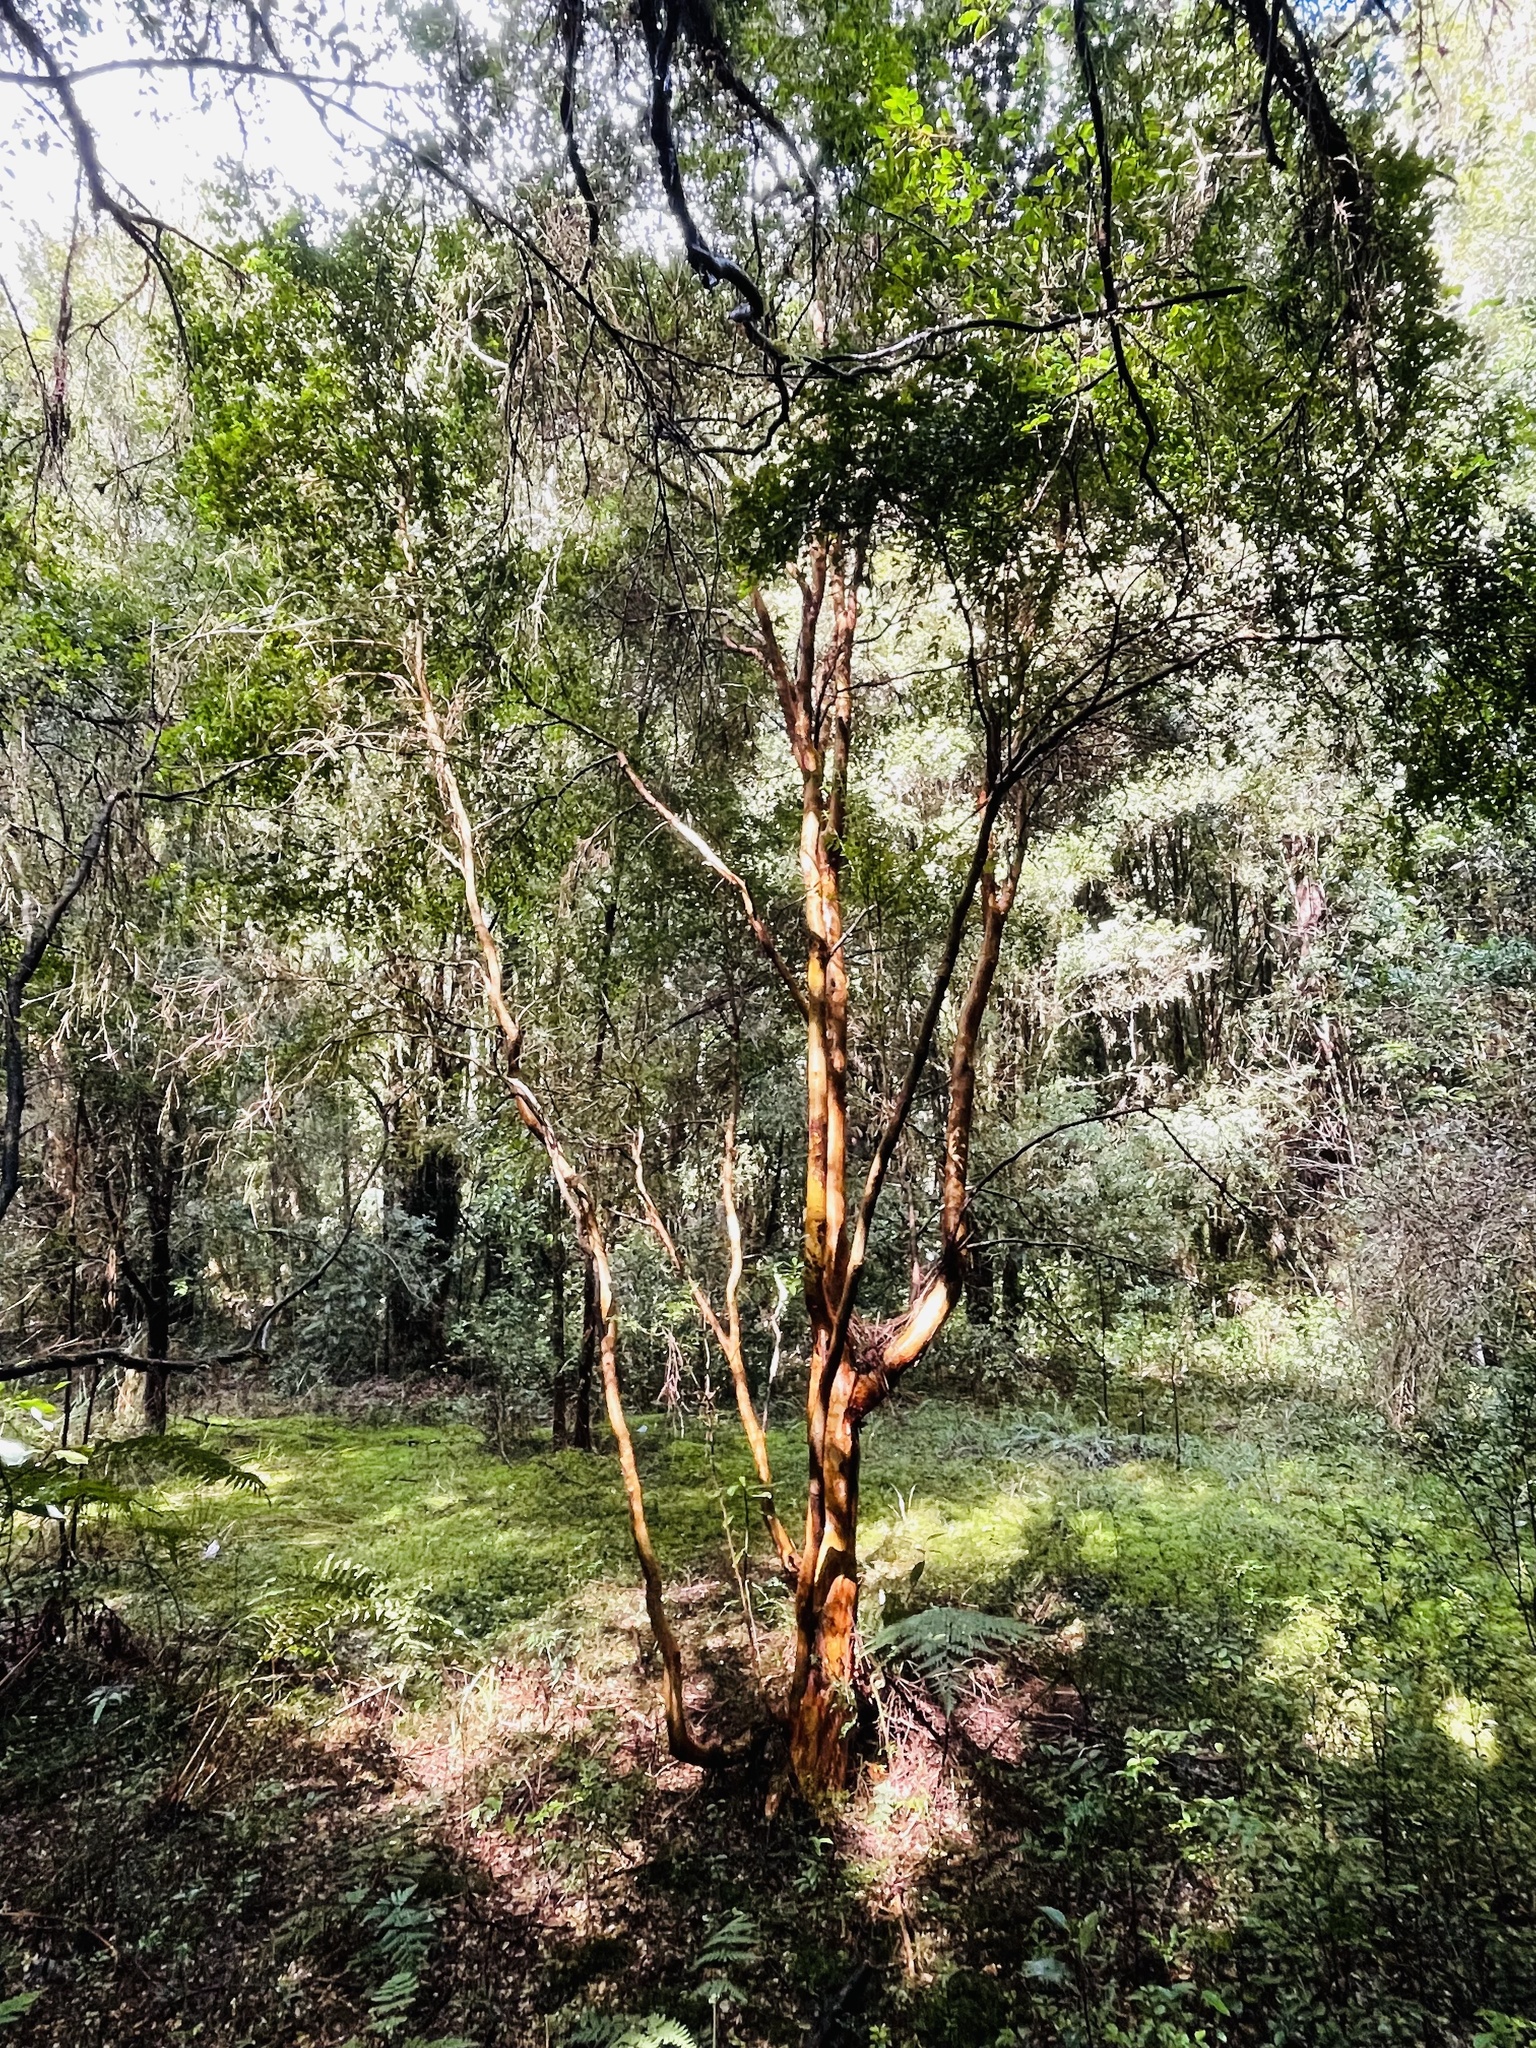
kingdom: Plantae
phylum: Tracheophyta
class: Magnoliopsida
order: Myrtales
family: Myrtaceae
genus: Luma
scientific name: Luma apiculata
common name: Chilean myrtle
